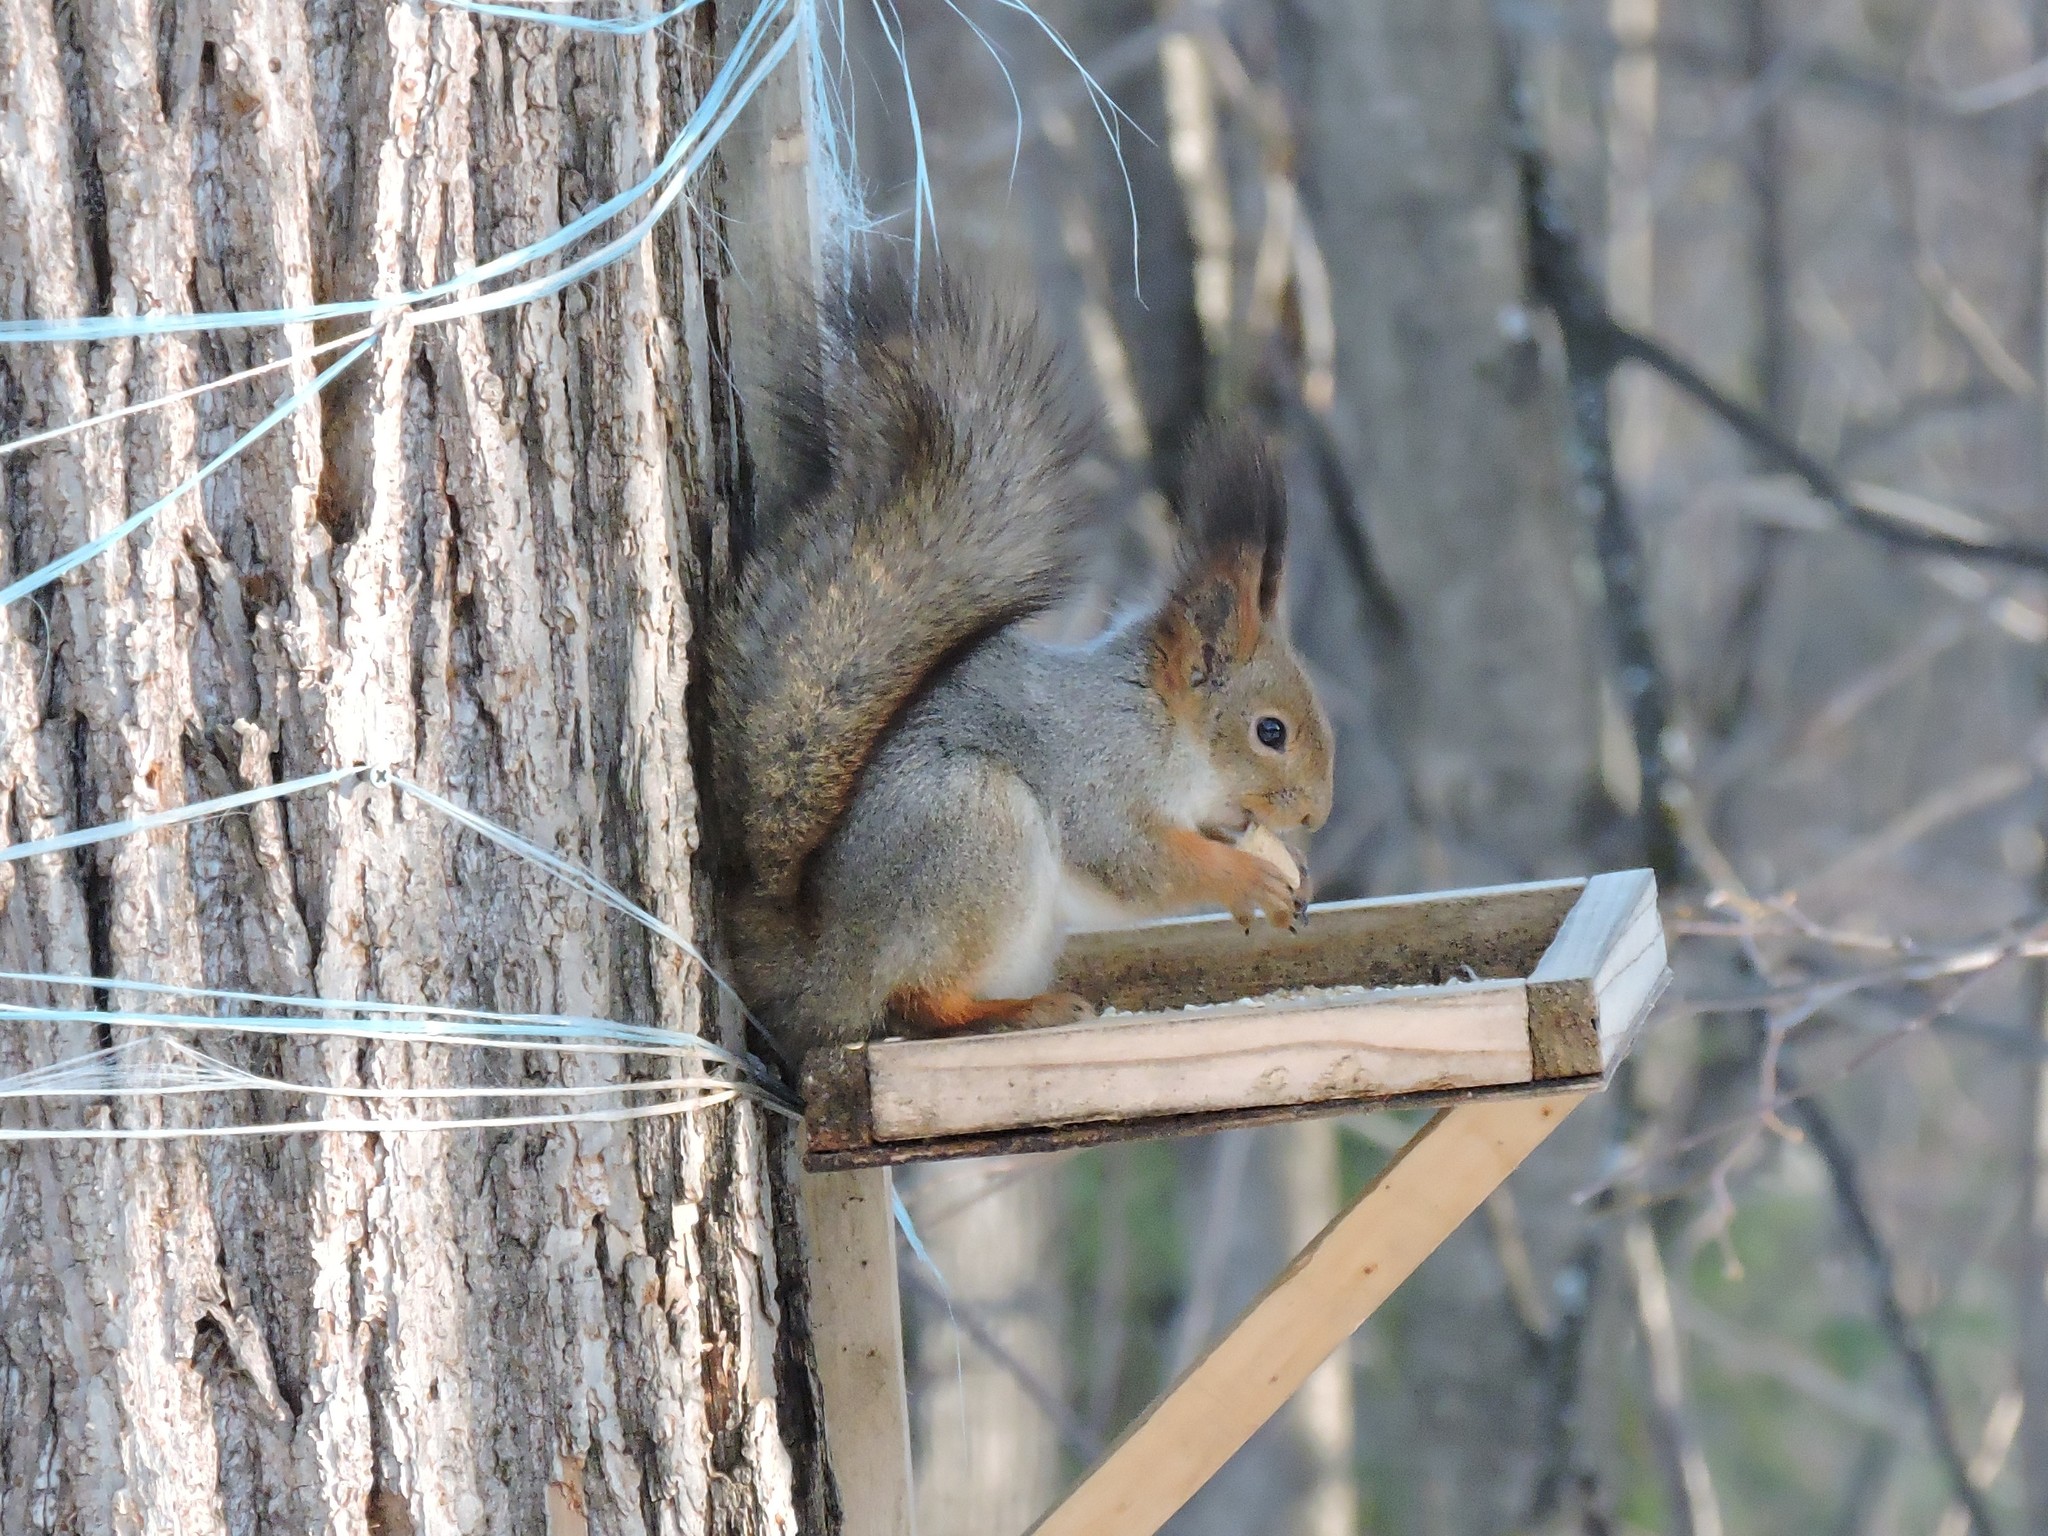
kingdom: Animalia
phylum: Chordata
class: Mammalia
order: Rodentia
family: Sciuridae
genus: Sciurus
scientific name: Sciurus vulgaris
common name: Eurasian red squirrel
